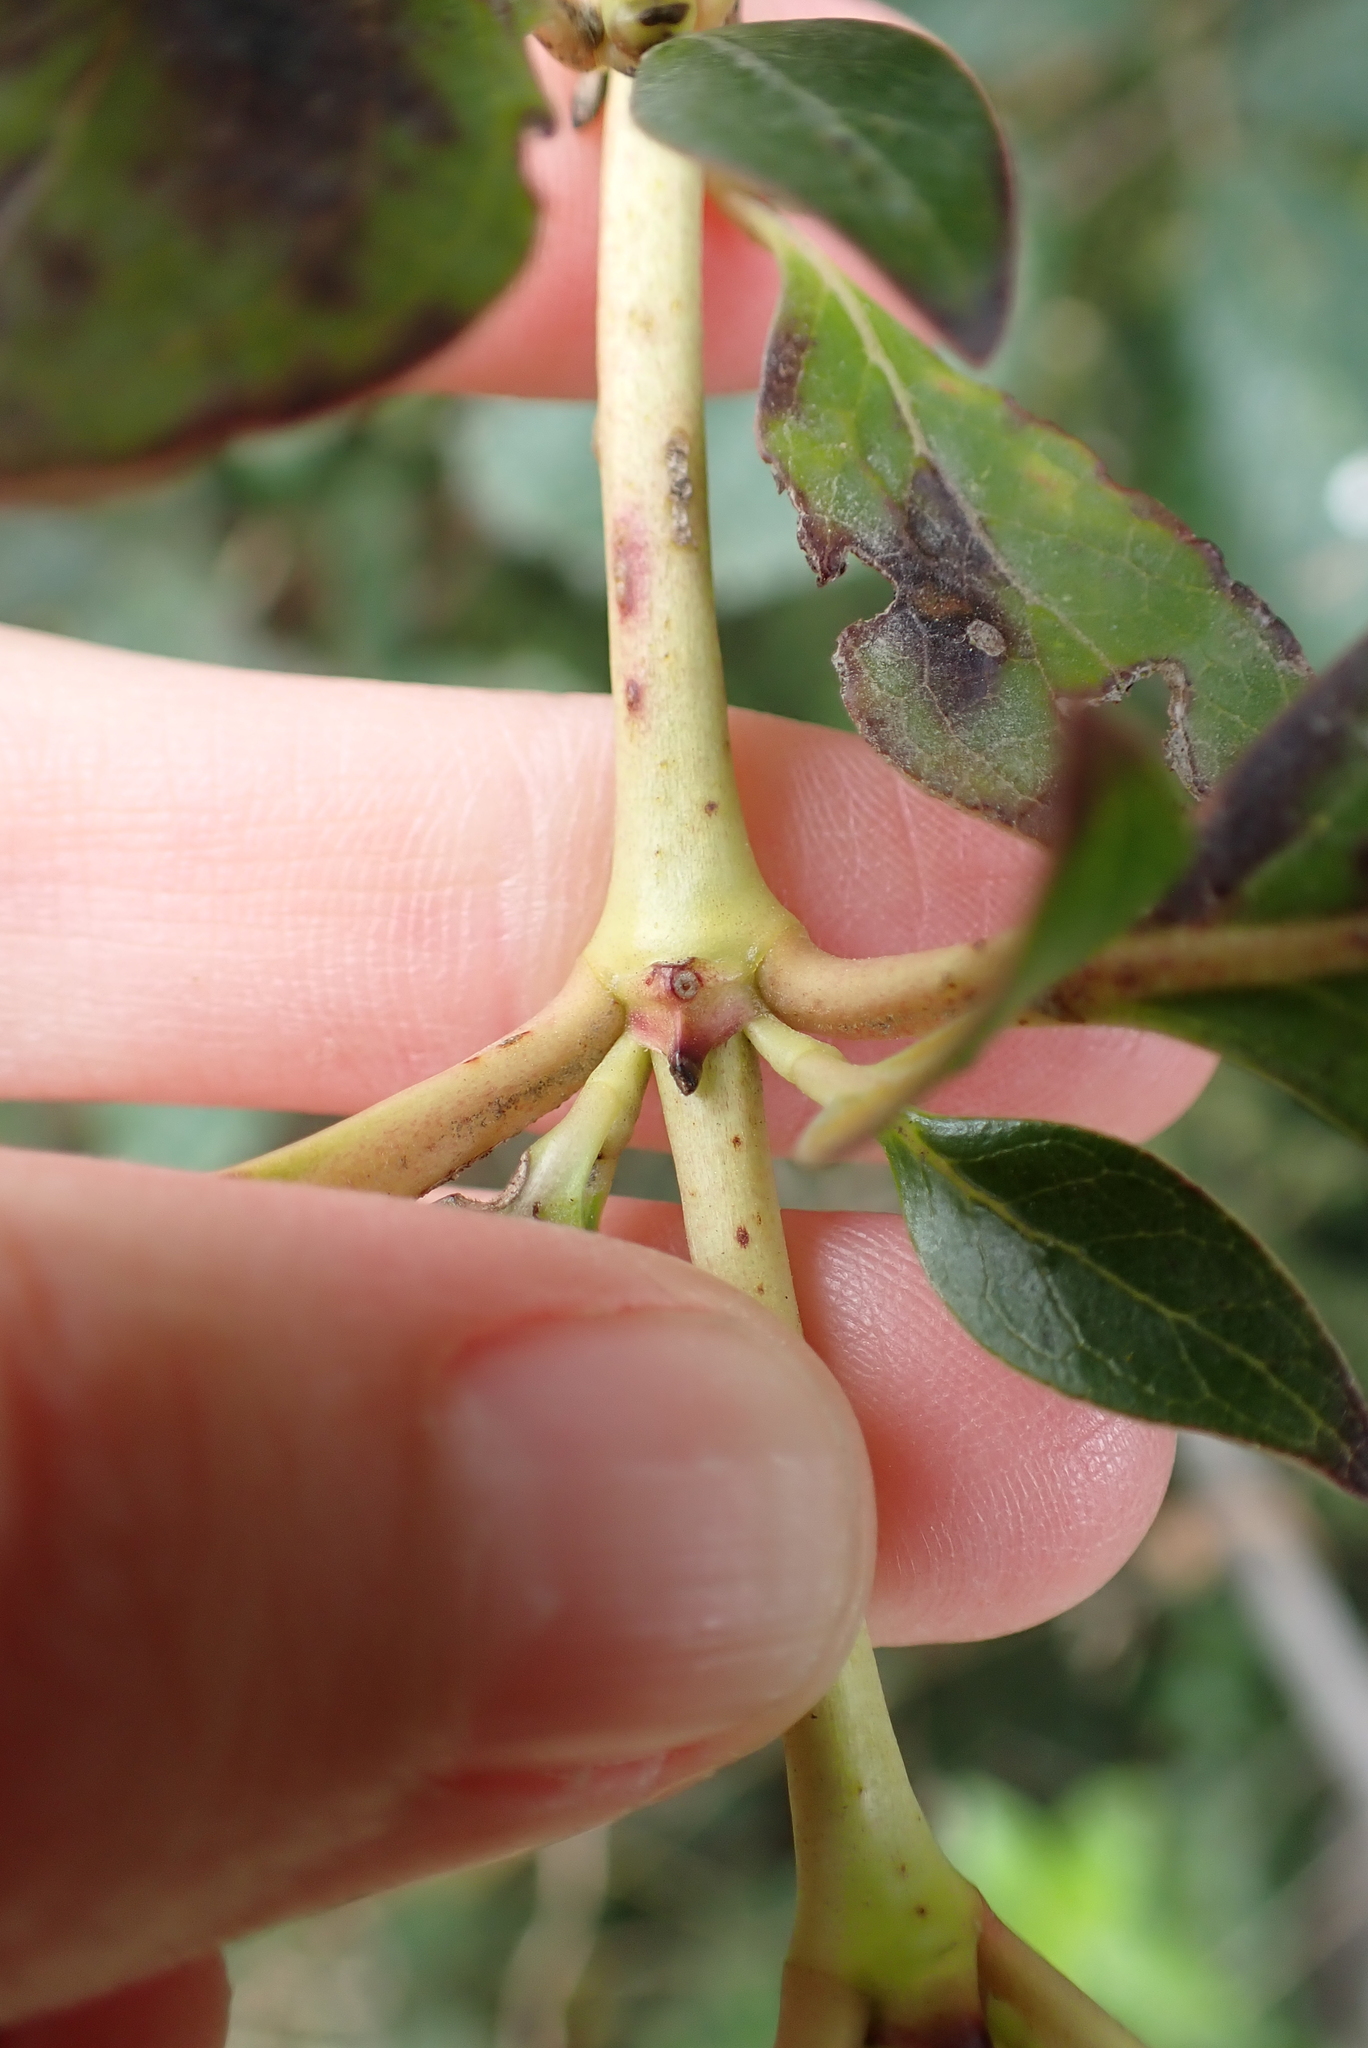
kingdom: Plantae
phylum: Tracheophyta
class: Magnoliopsida
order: Gentianales
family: Rubiaceae
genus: Coprosma
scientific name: Coprosma robusta
